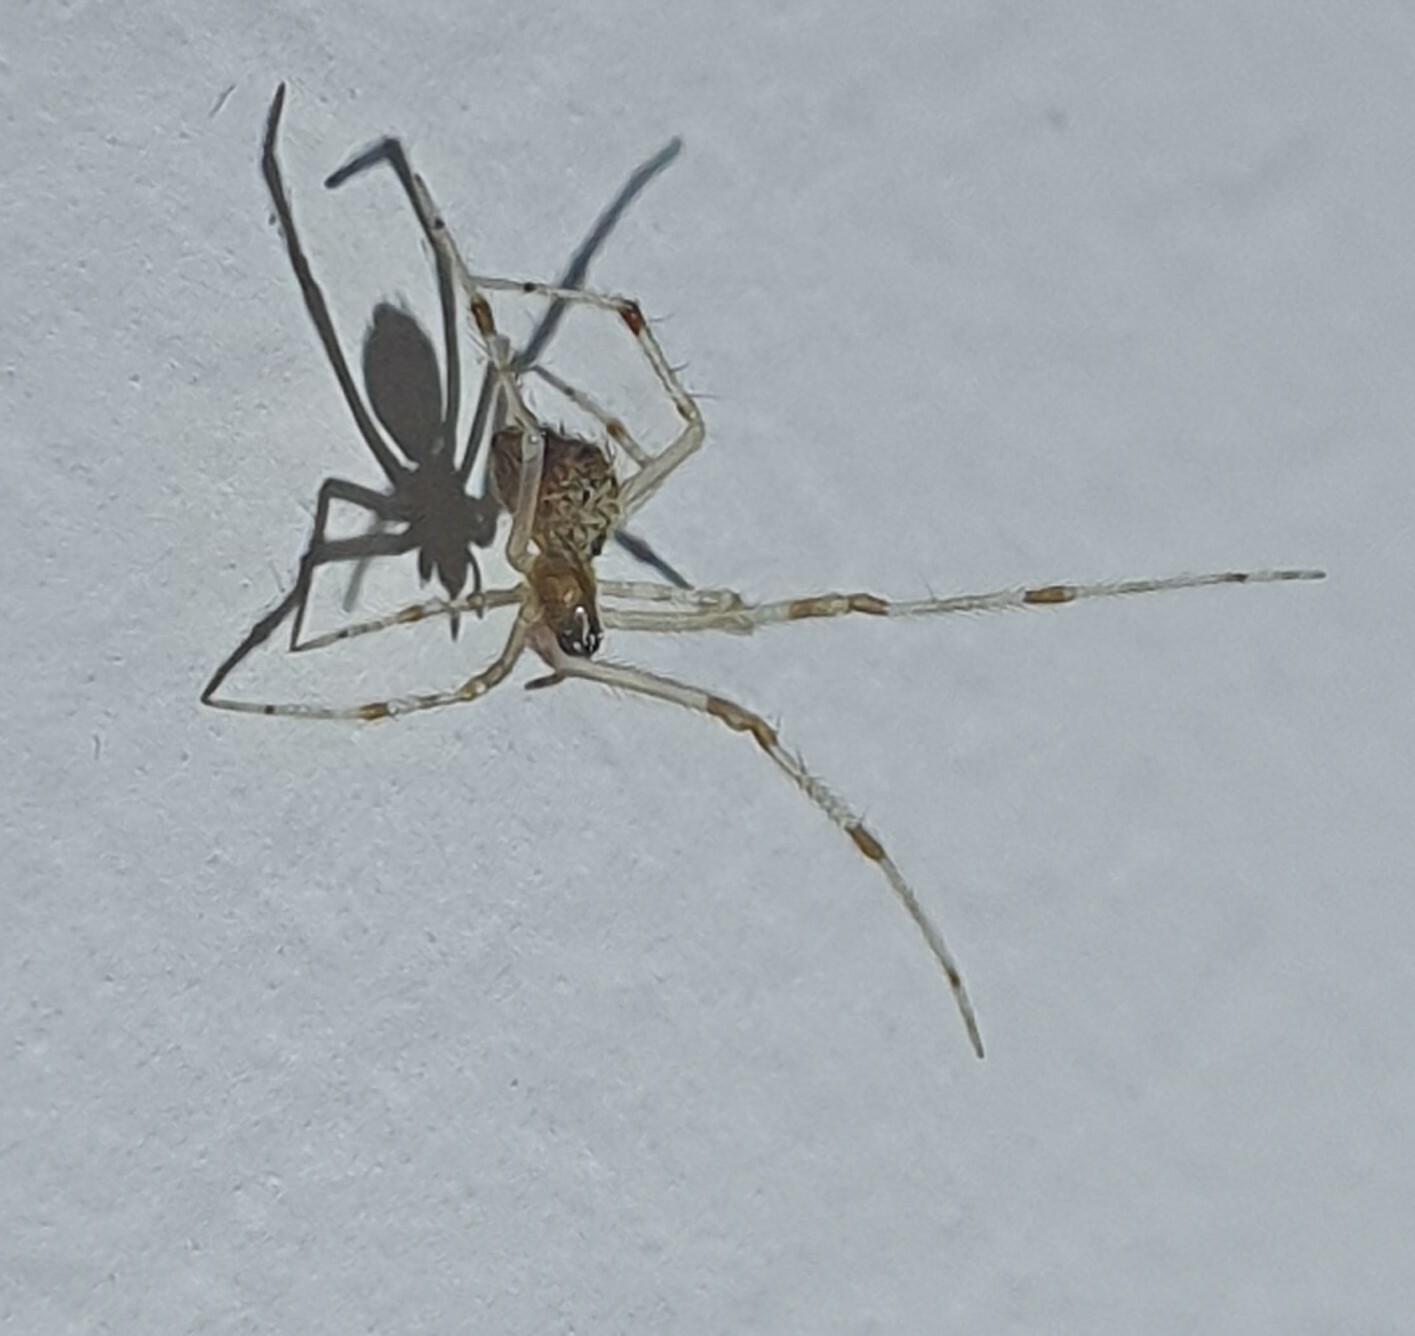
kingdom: Animalia
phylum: Arthropoda
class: Arachnida
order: Araneae
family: Theridiidae
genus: Cryptachaea
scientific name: Cryptachaea gigantipes
